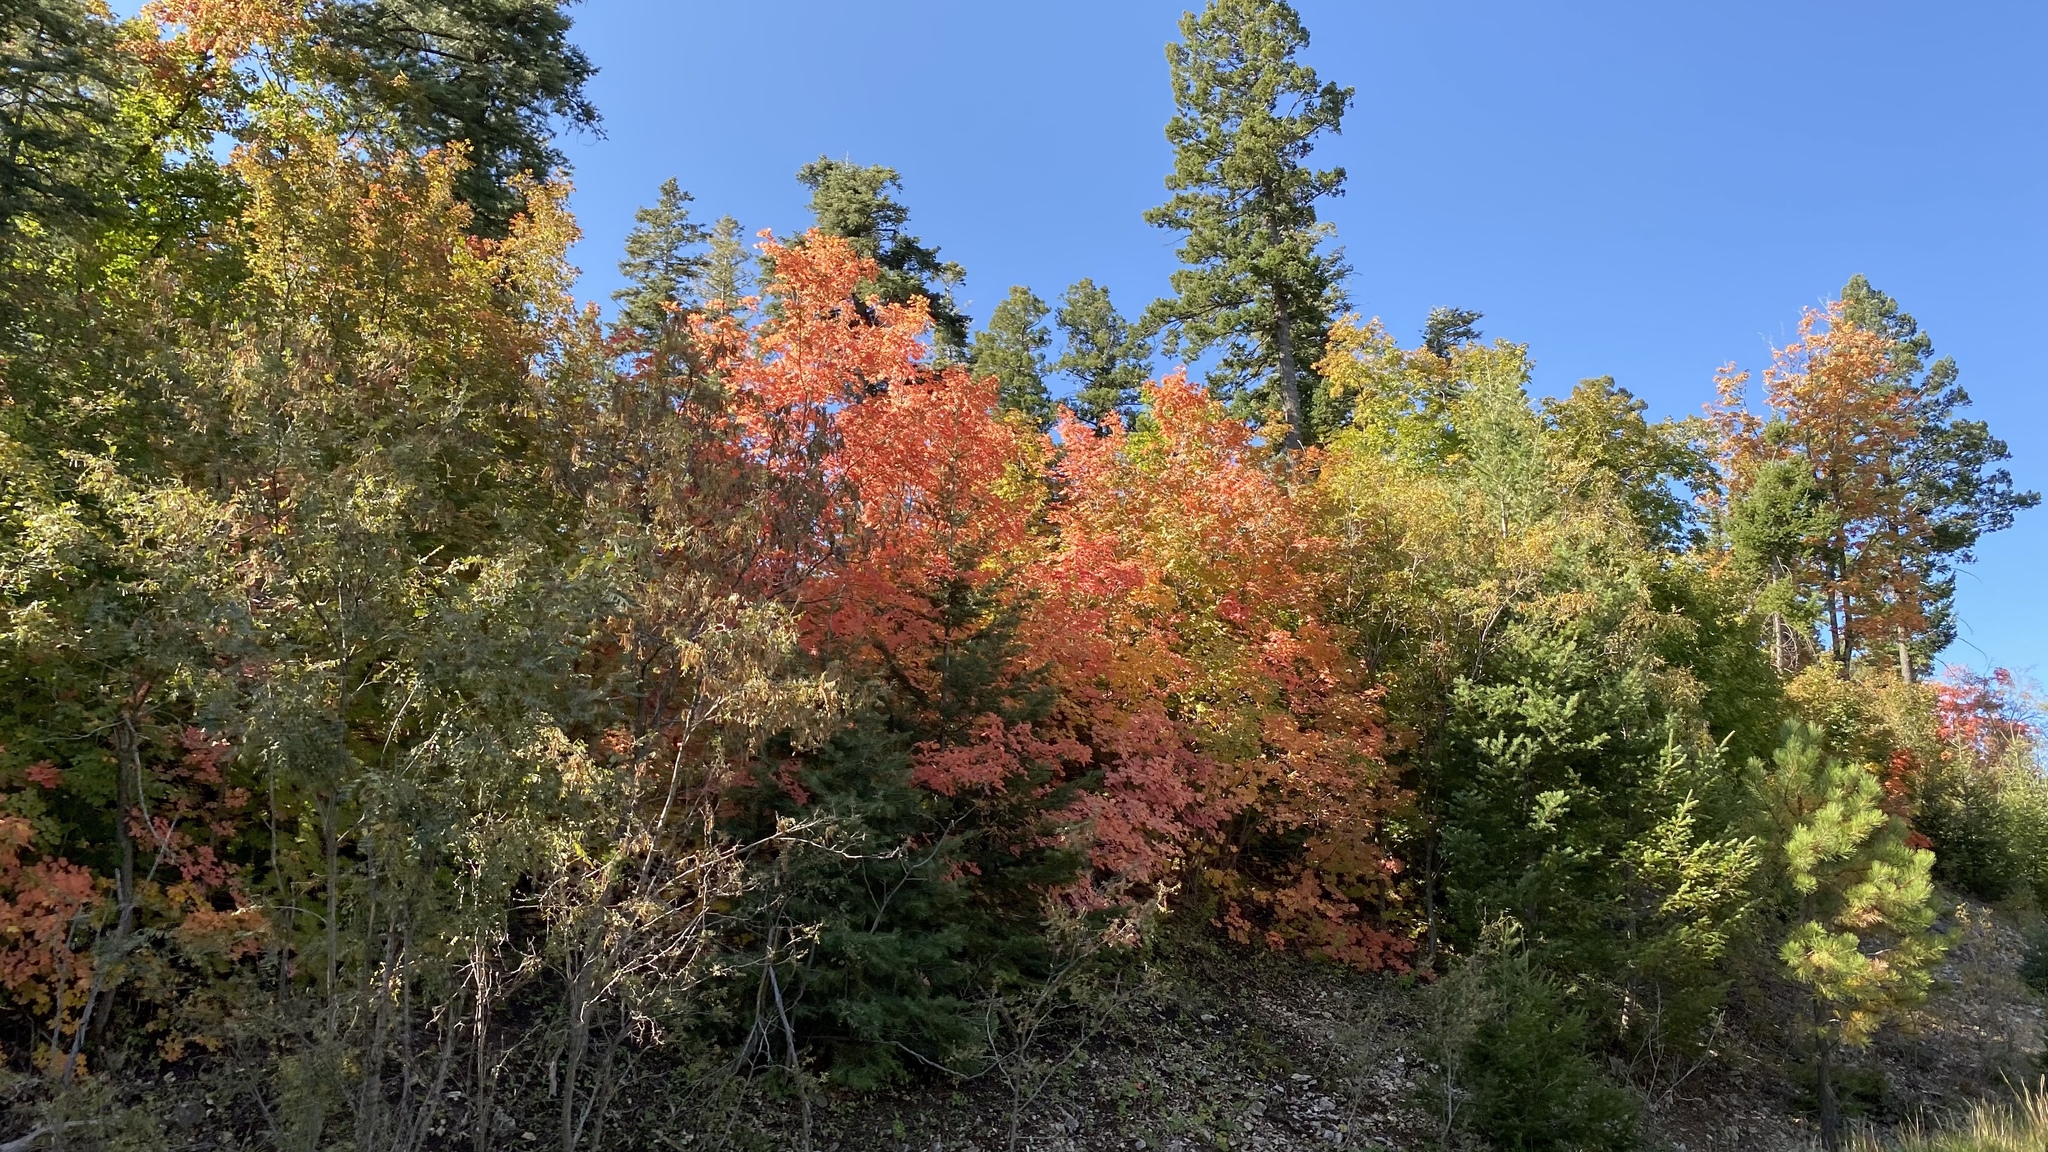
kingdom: Plantae
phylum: Tracheophyta
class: Magnoliopsida
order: Sapindales
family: Sapindaceae
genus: Acer
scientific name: Acer grandidentatum
